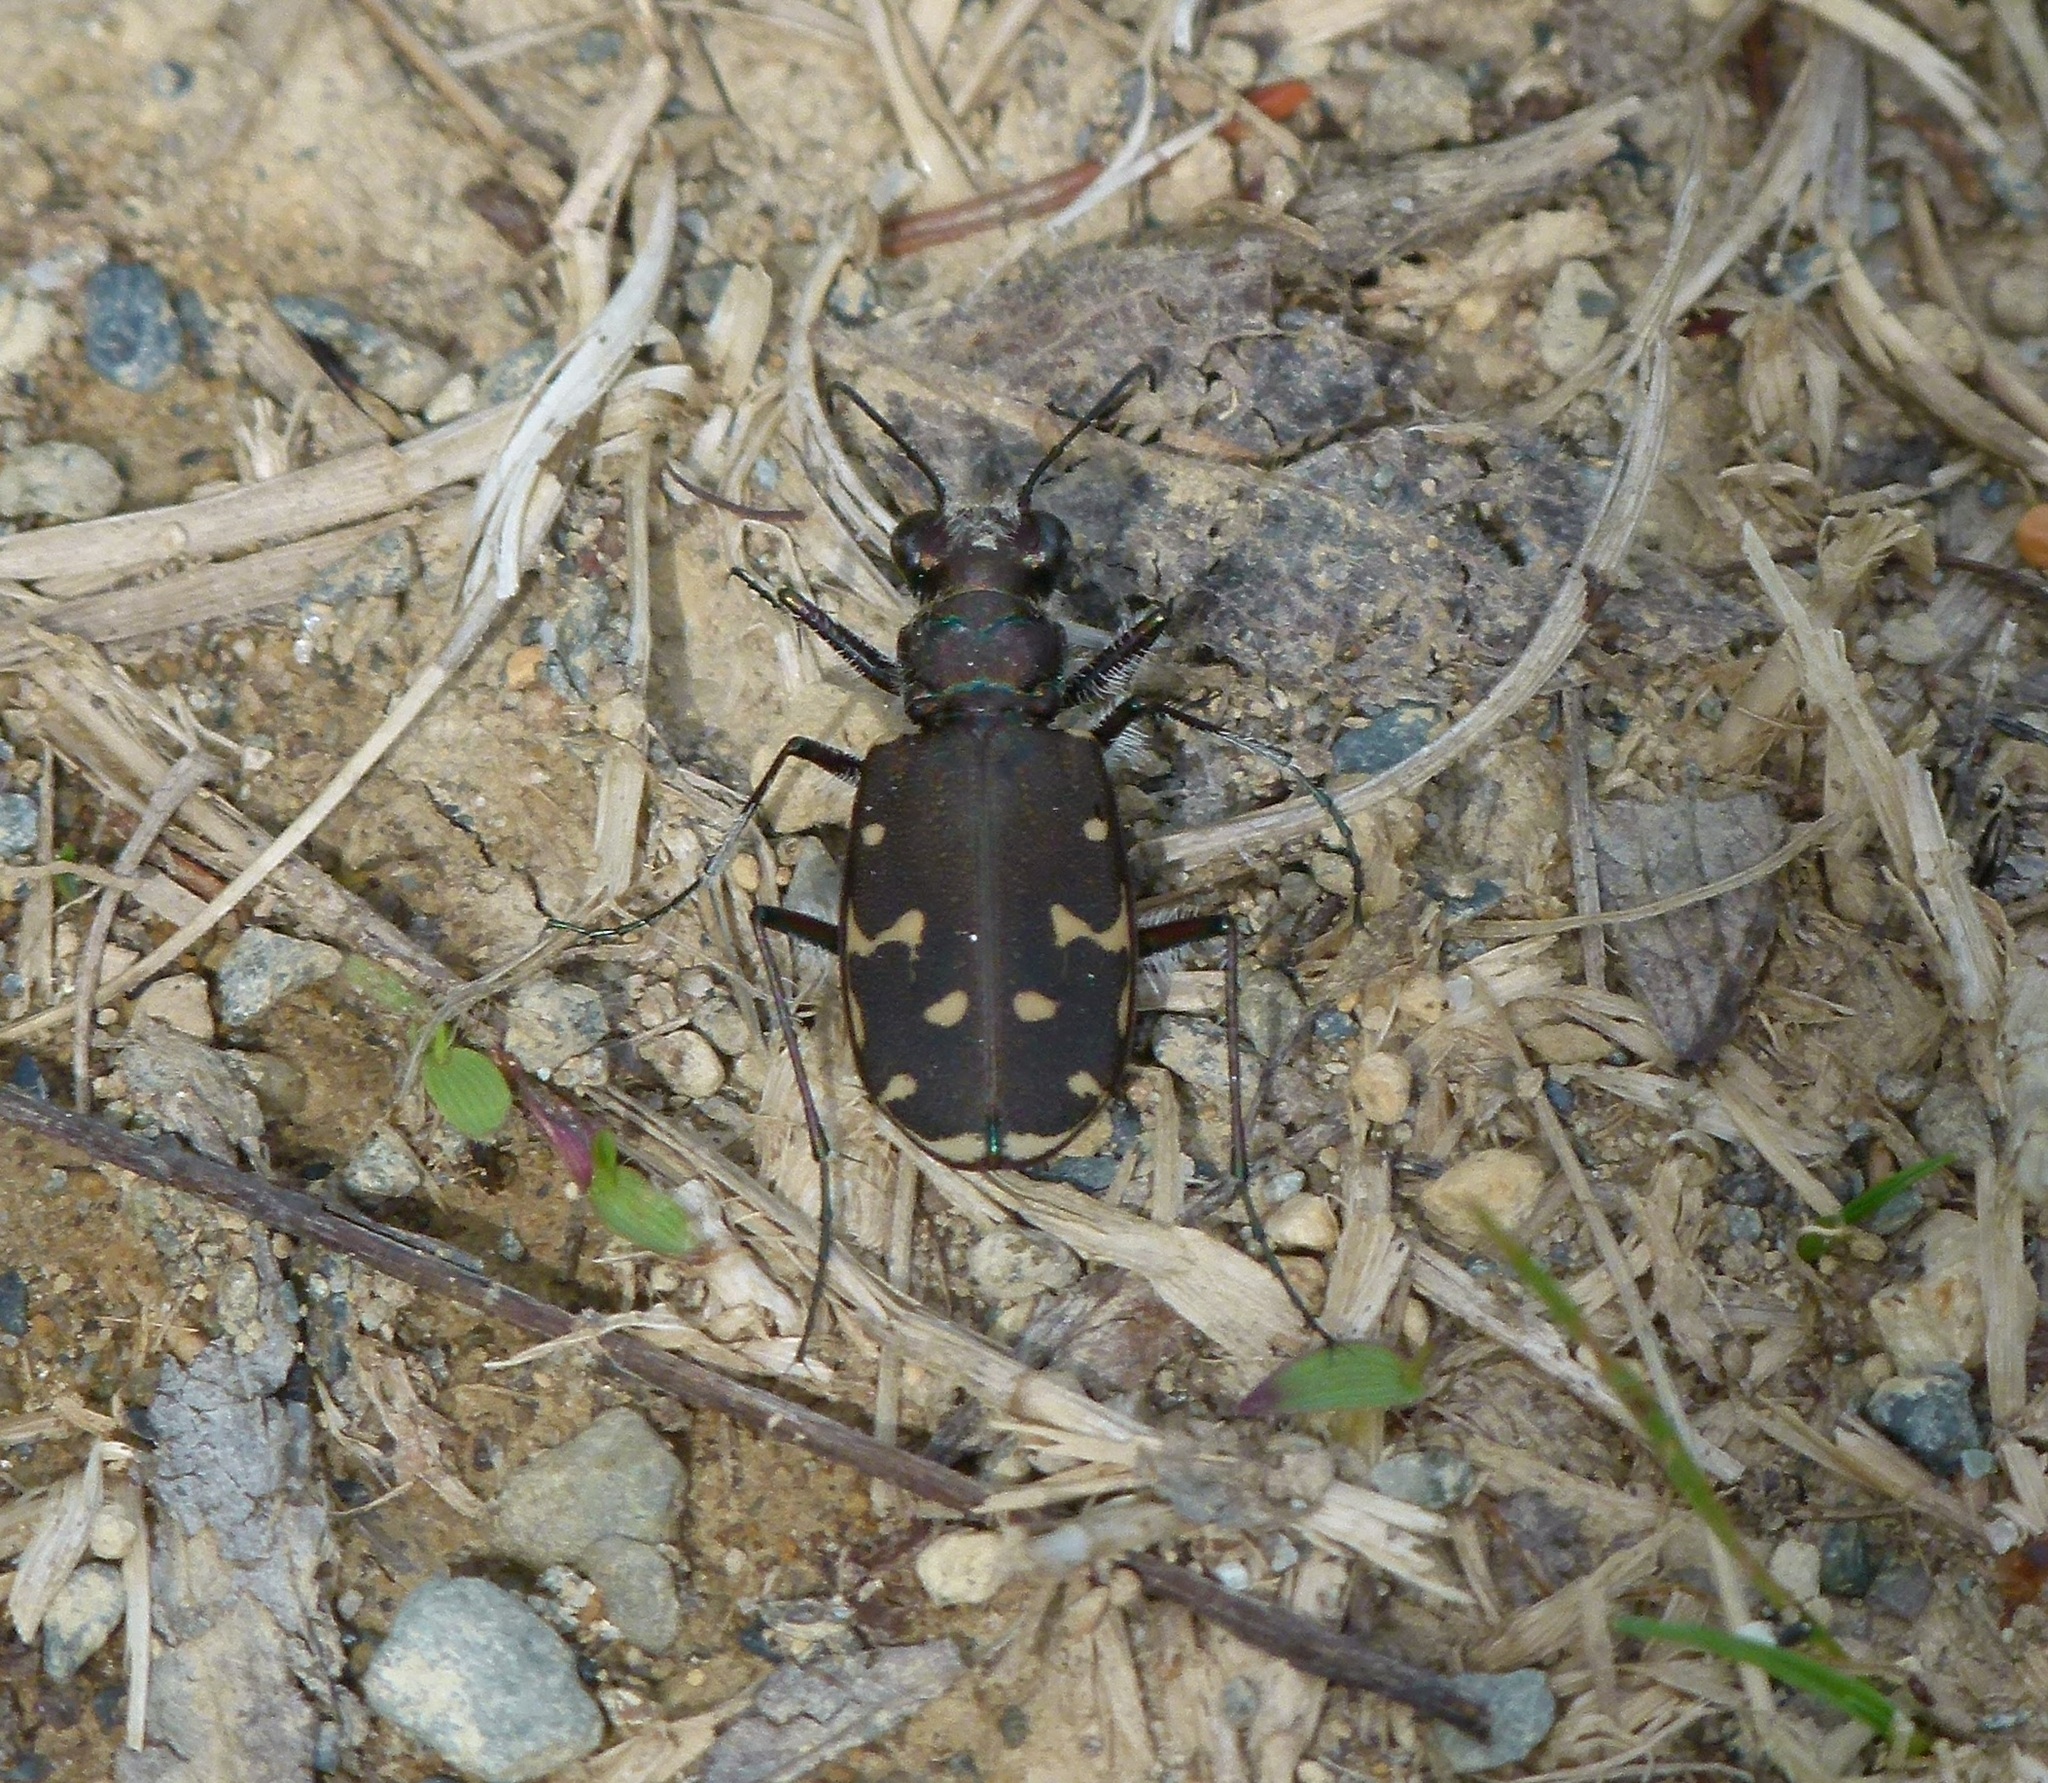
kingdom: Animalia
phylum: Arthropoda
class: Insecta
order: Coleoptera
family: Carabidae
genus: Cicindela
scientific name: Cicindela duodecimguttata
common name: Twelve-spotted tiger beetle
